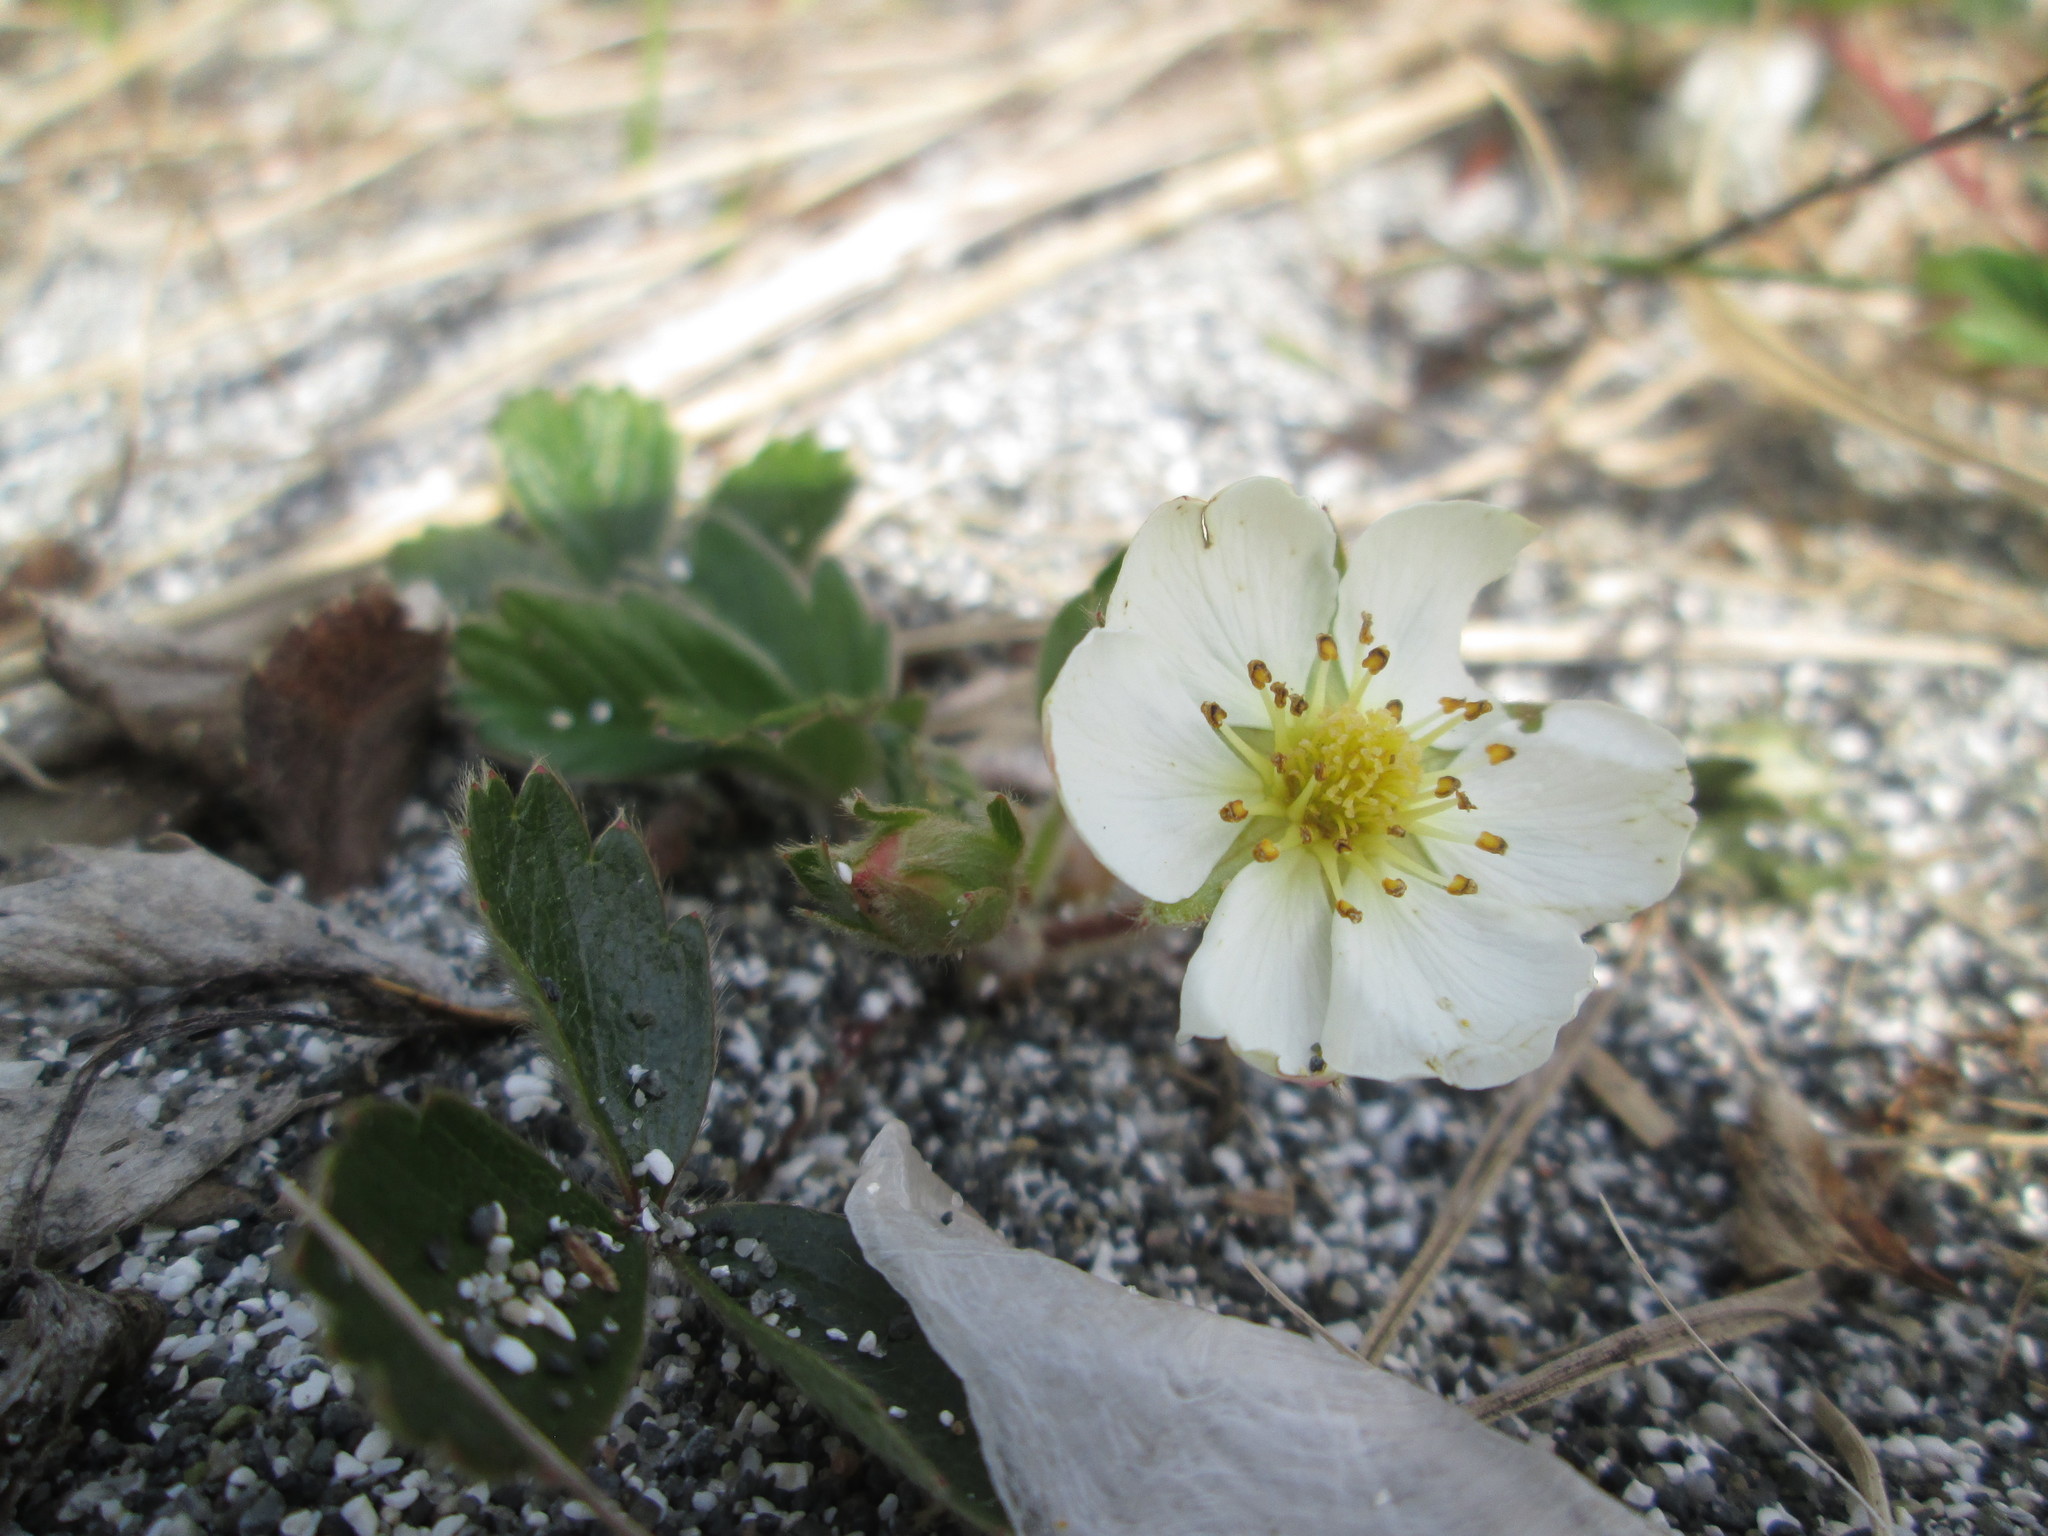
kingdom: Plantae
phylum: Tracheophyta
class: Magnoliopsida
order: Rosales
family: Rosaceae
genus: Fragaria
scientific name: Fragaria chiloensis
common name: Beach strawberry
